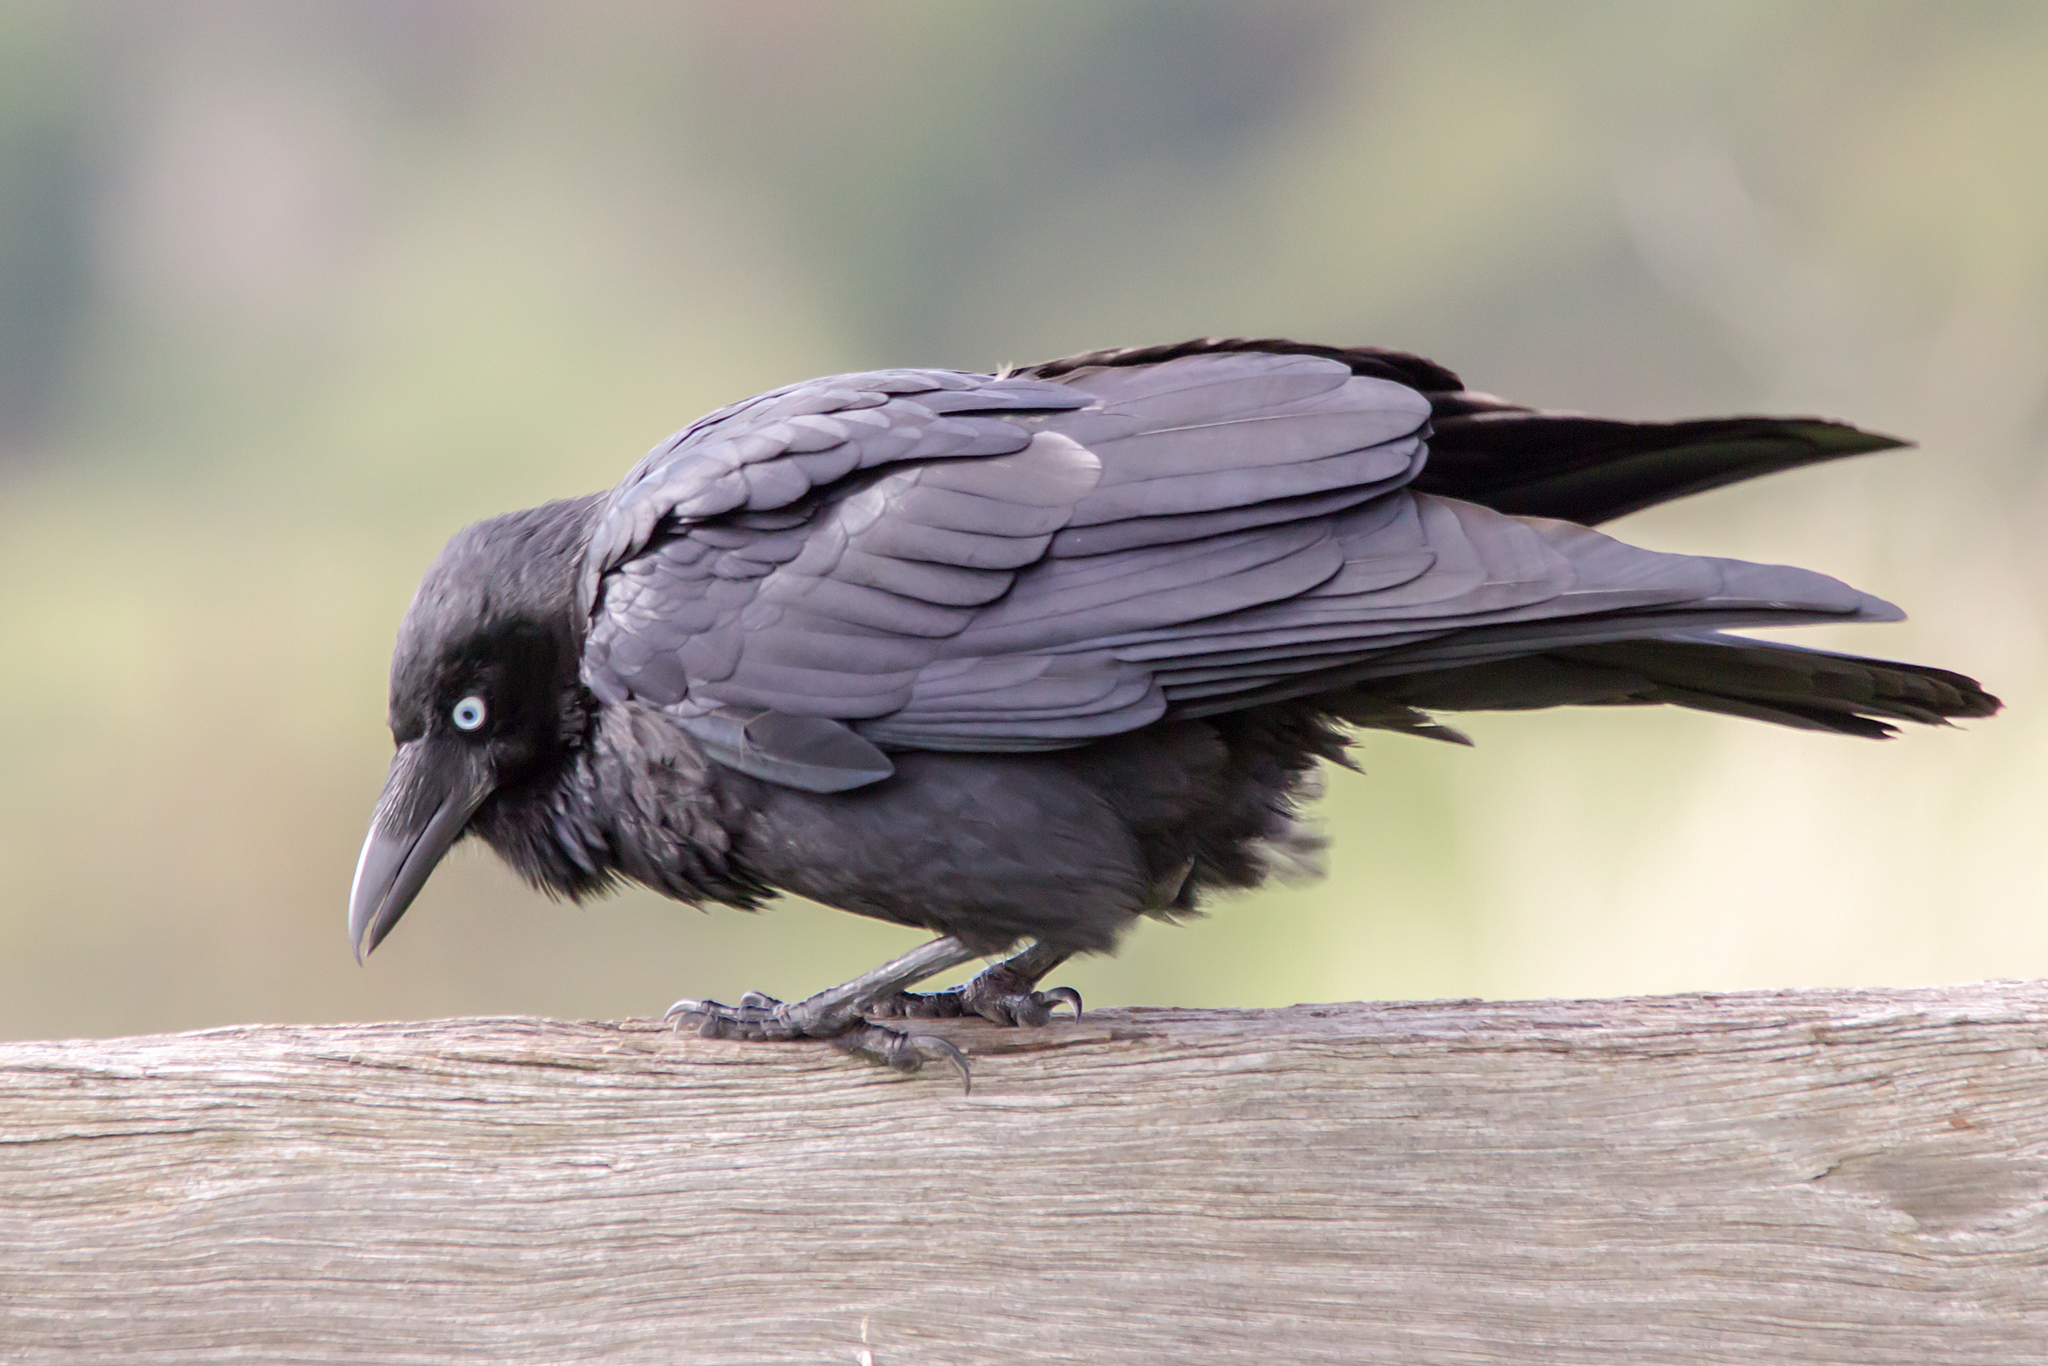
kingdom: Animalia
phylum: Chordata
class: Aves
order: Passeriformes
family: Corvidae
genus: Corvus
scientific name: Corvus mellori
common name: Little raven
